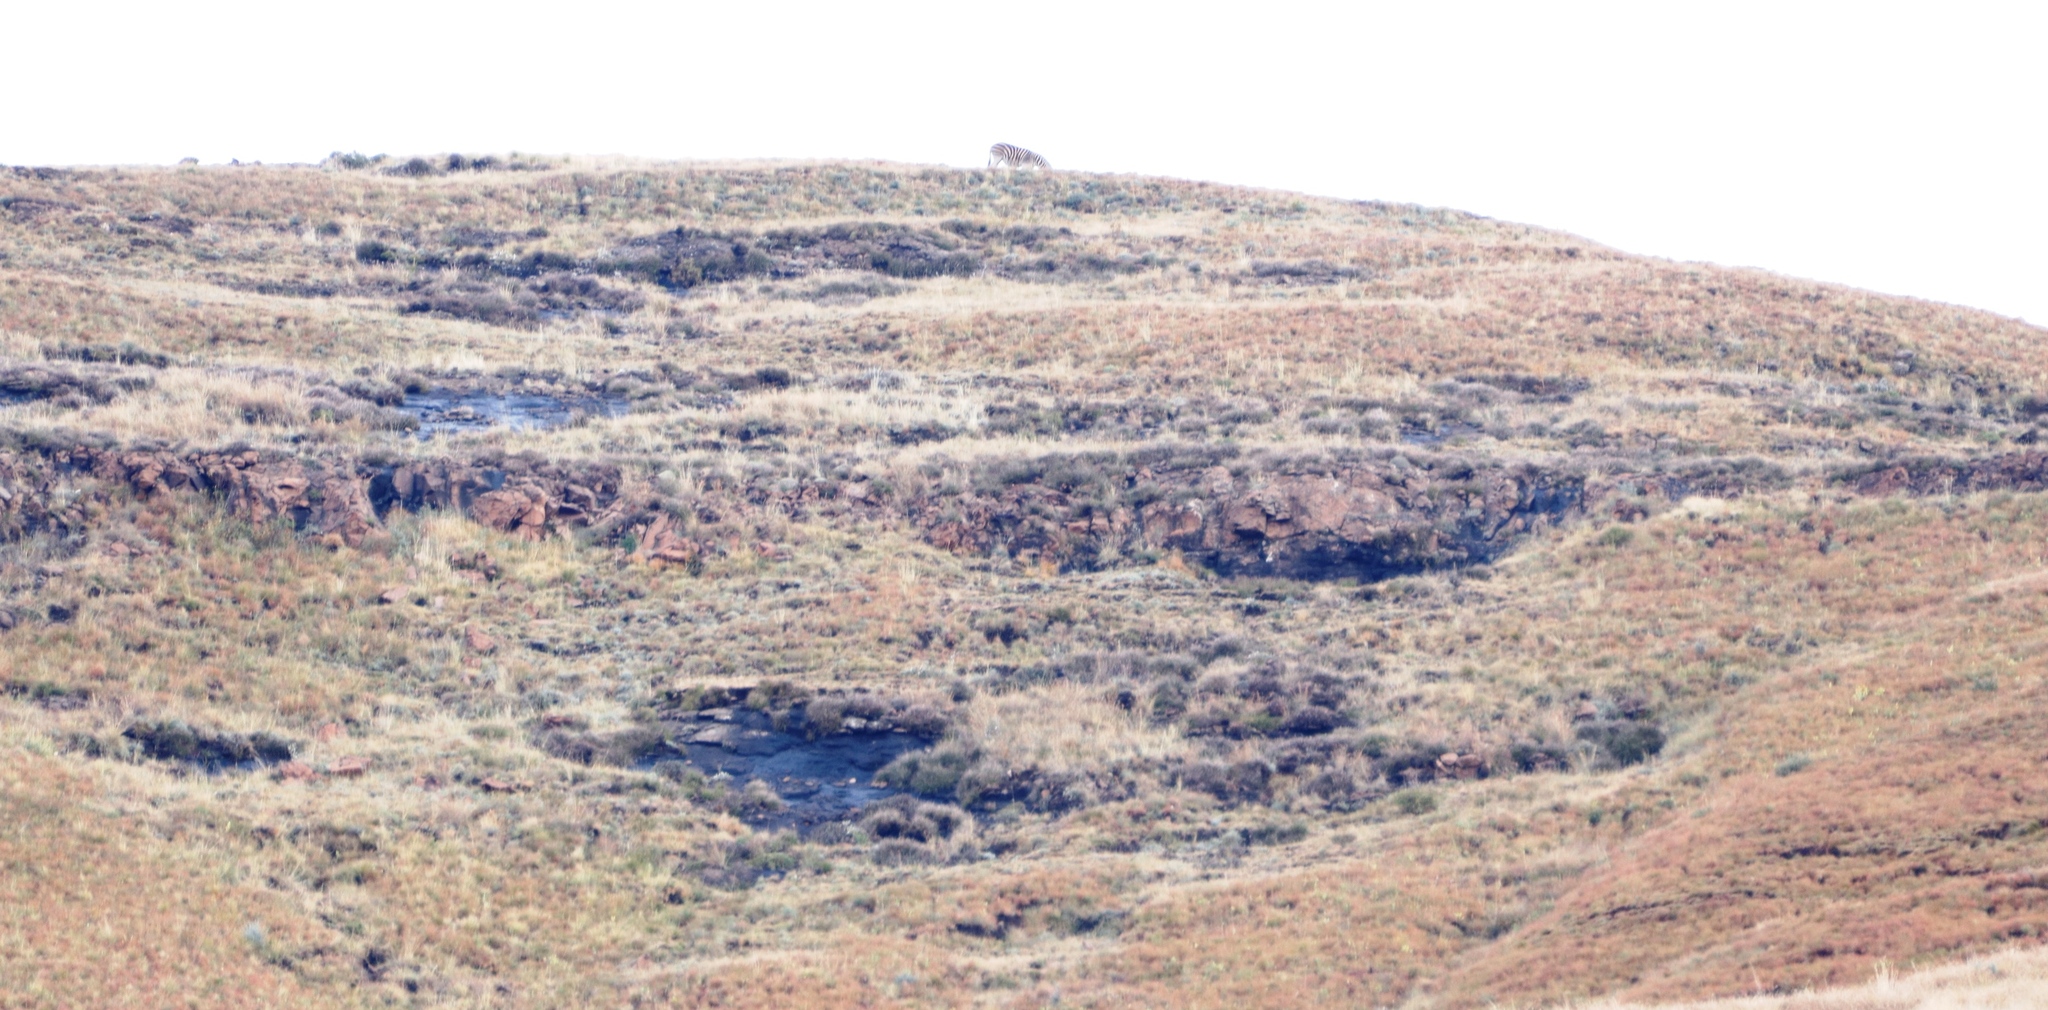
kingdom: Animalia
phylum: Chordata
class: Mammalia
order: Perissodactyla
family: Equidae
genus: Equus
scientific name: Equus quagga
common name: Plains zebra
